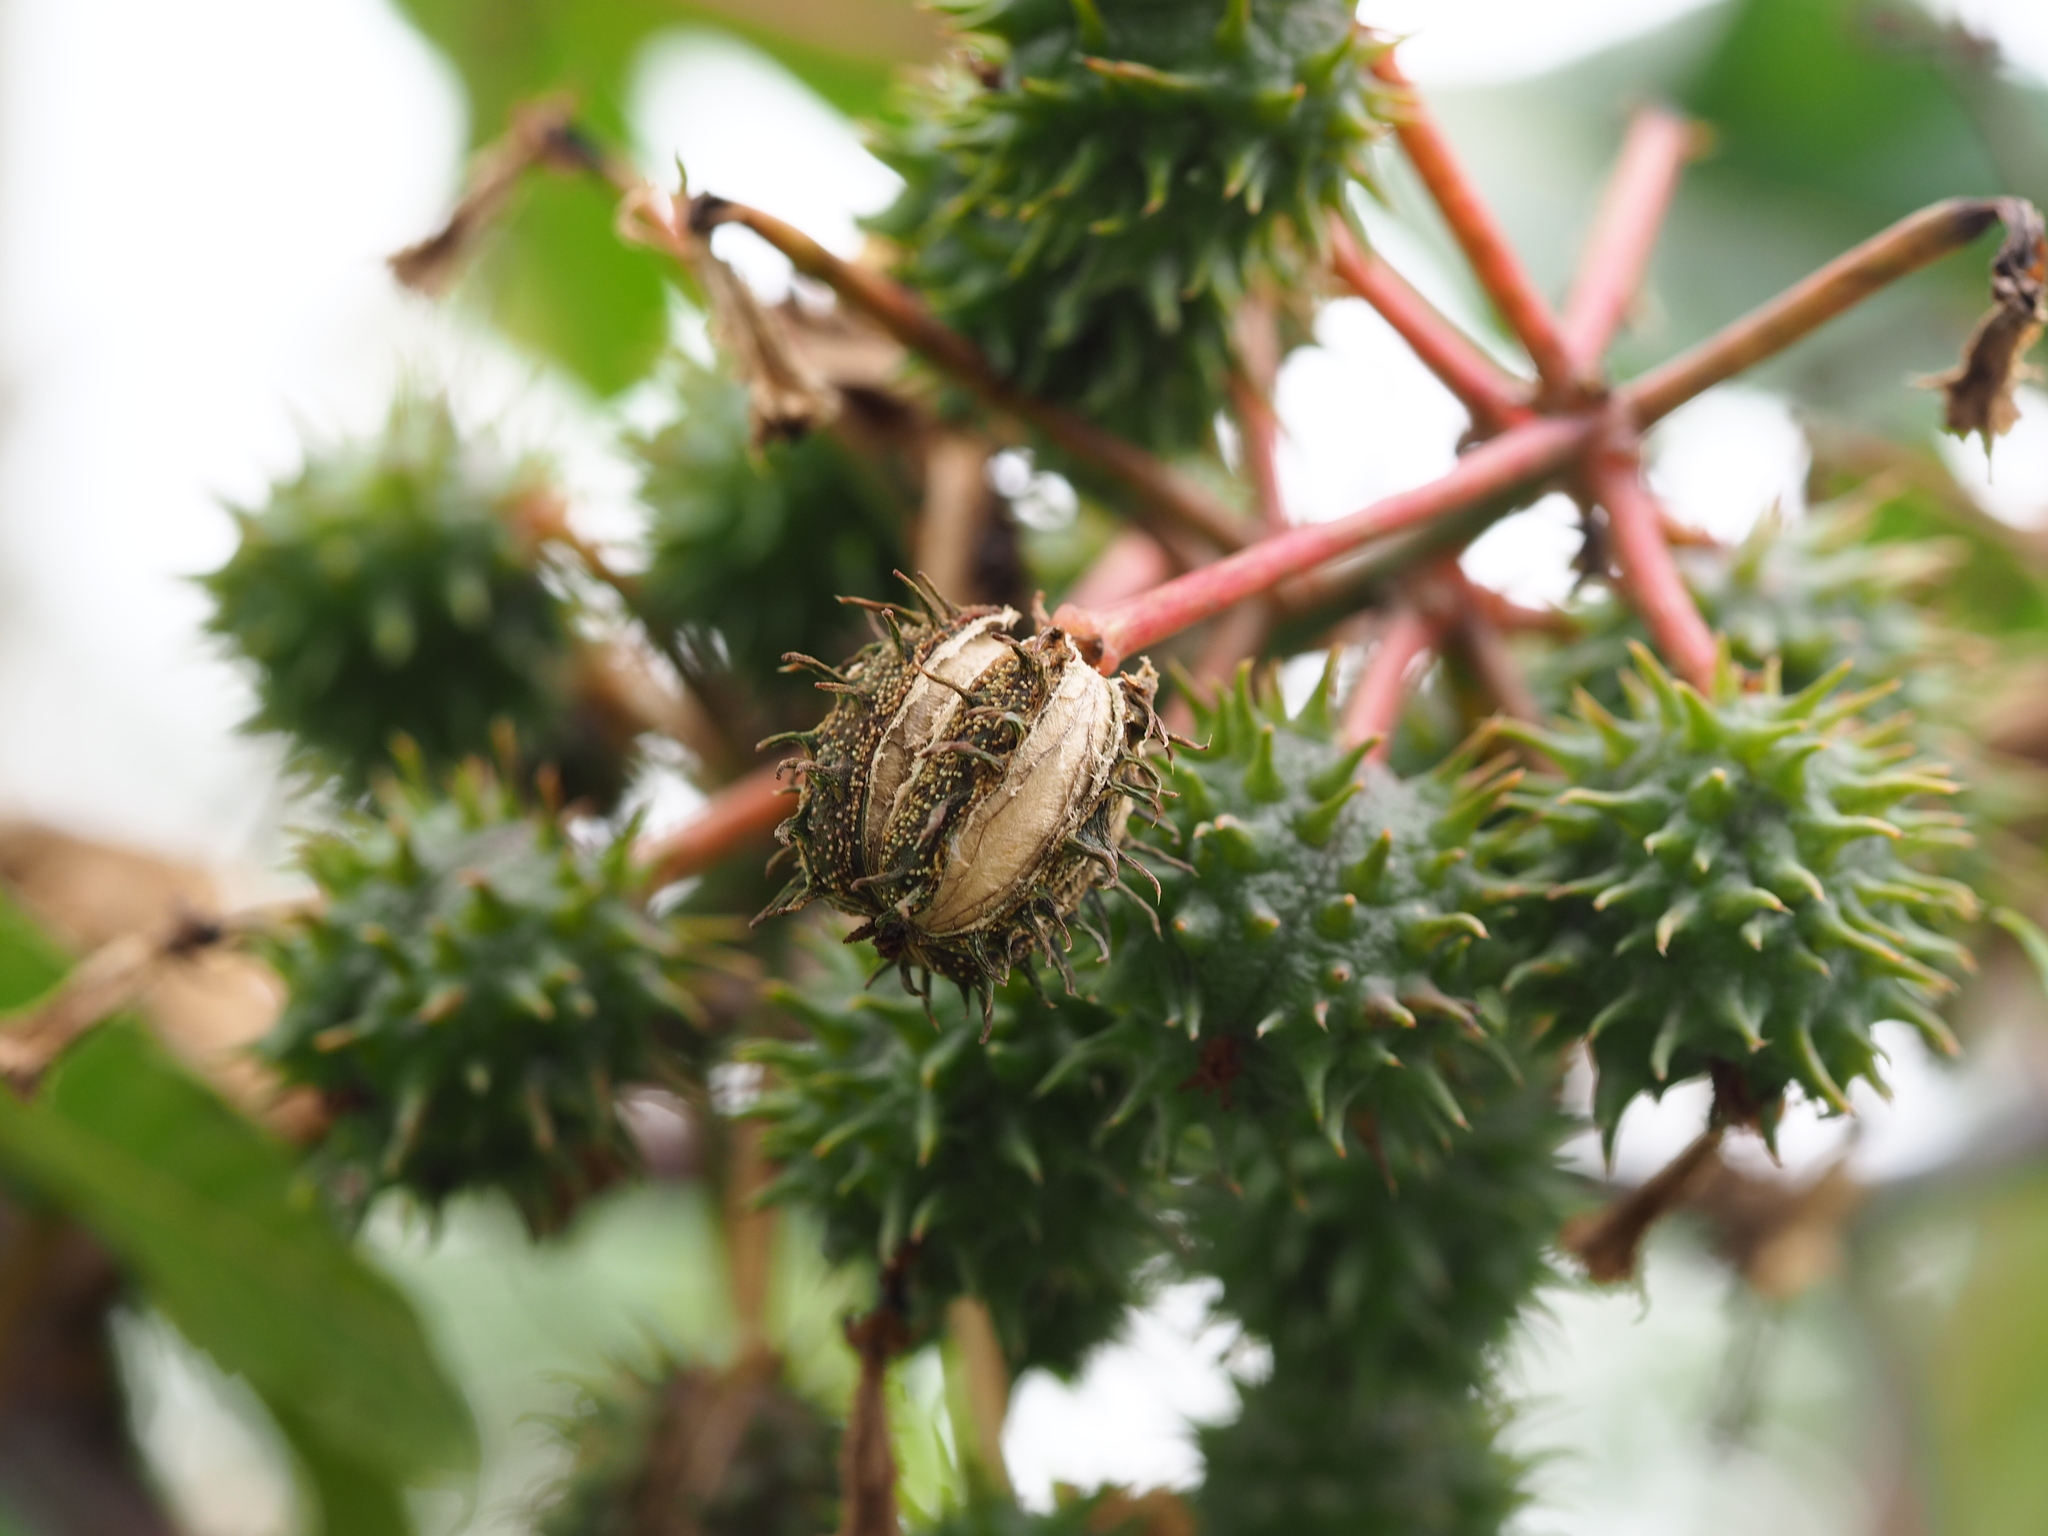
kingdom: Plantae
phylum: Tracheophyta
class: Magnoliopsida
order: Malpighiales
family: Euphorbiaceae
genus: Ricinus
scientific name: Ricinus communis
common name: Castor-oil-plant
